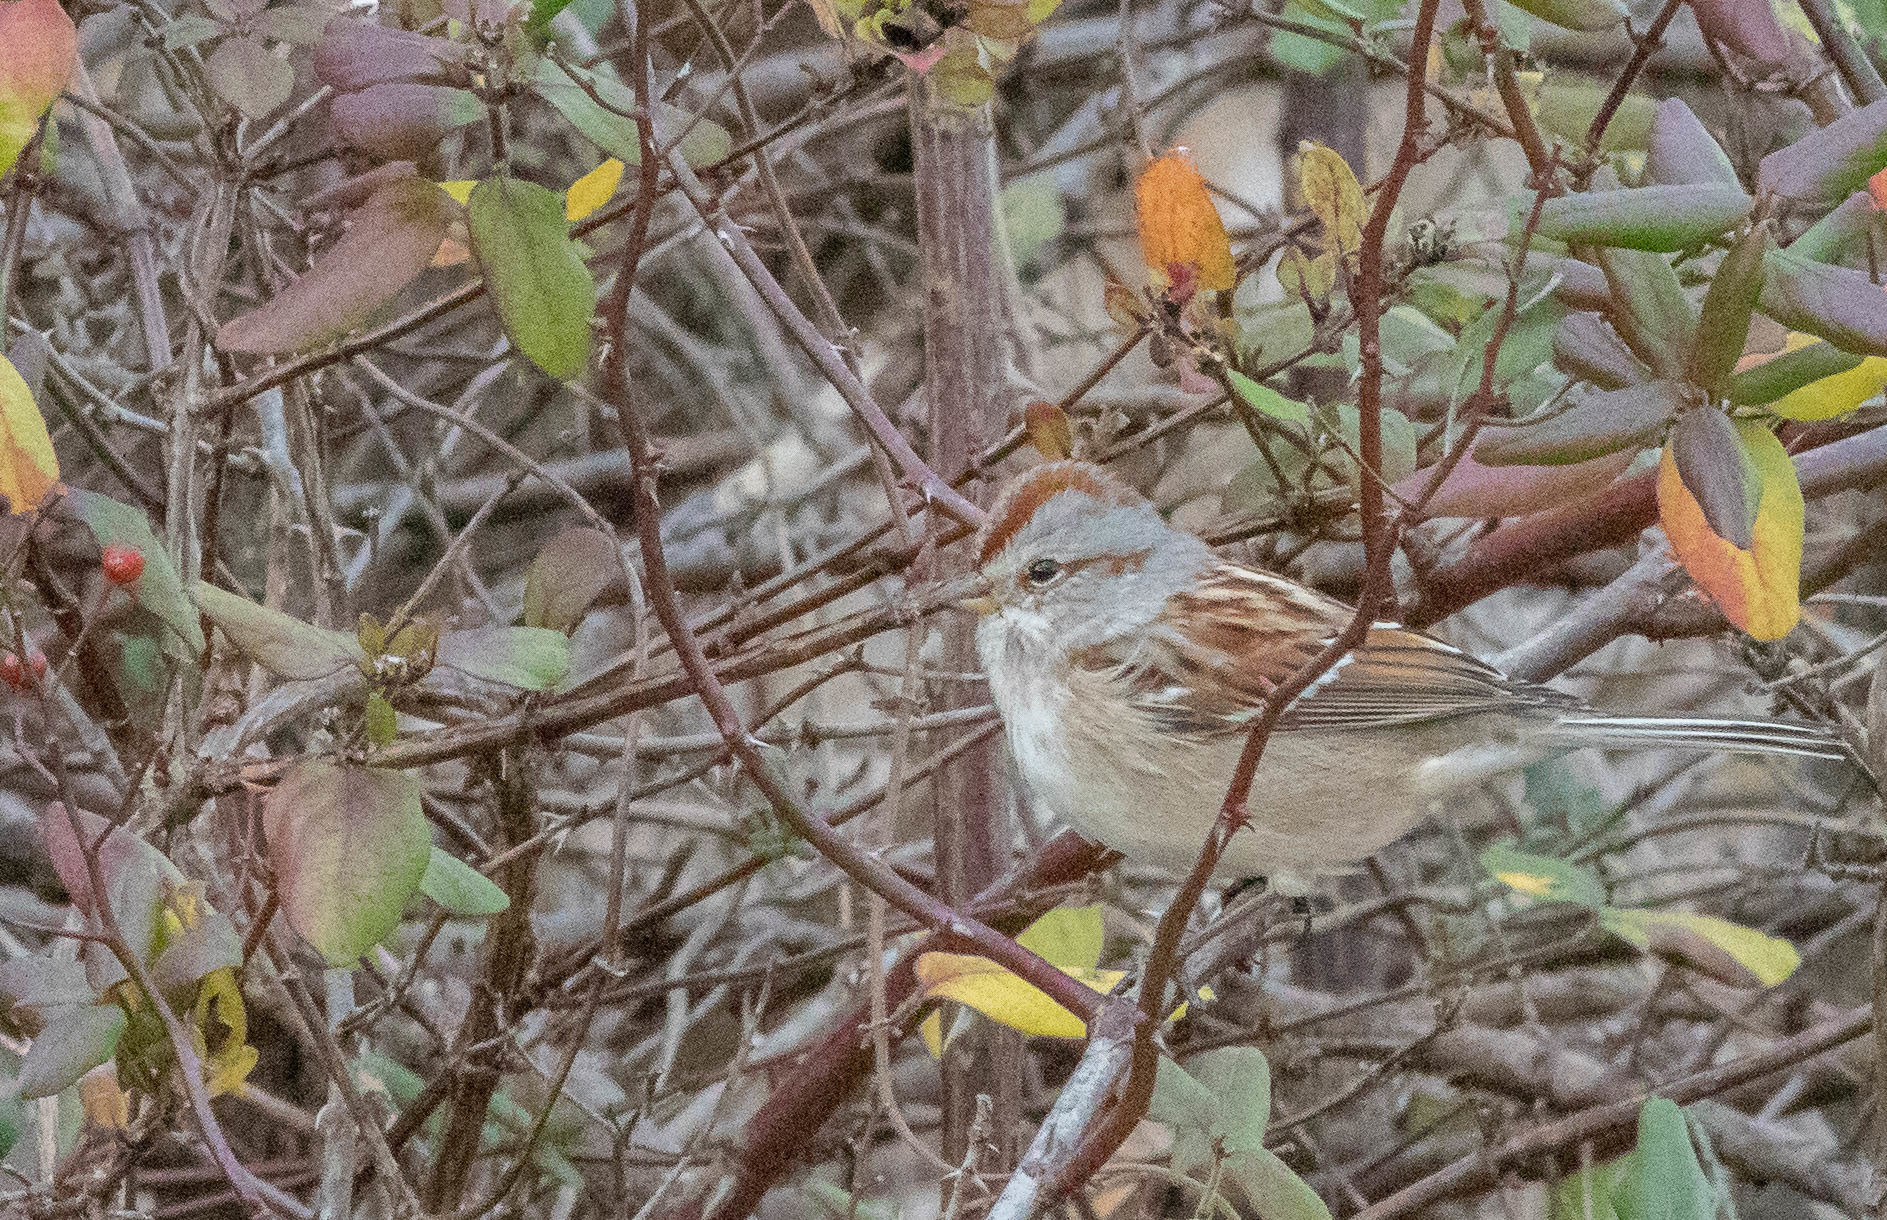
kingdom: Animalia
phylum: Chordata
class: Aves
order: Passeriformes
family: Passerellidae
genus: Spizelloides
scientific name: Spizelloides arborea
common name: American tree sparrow
